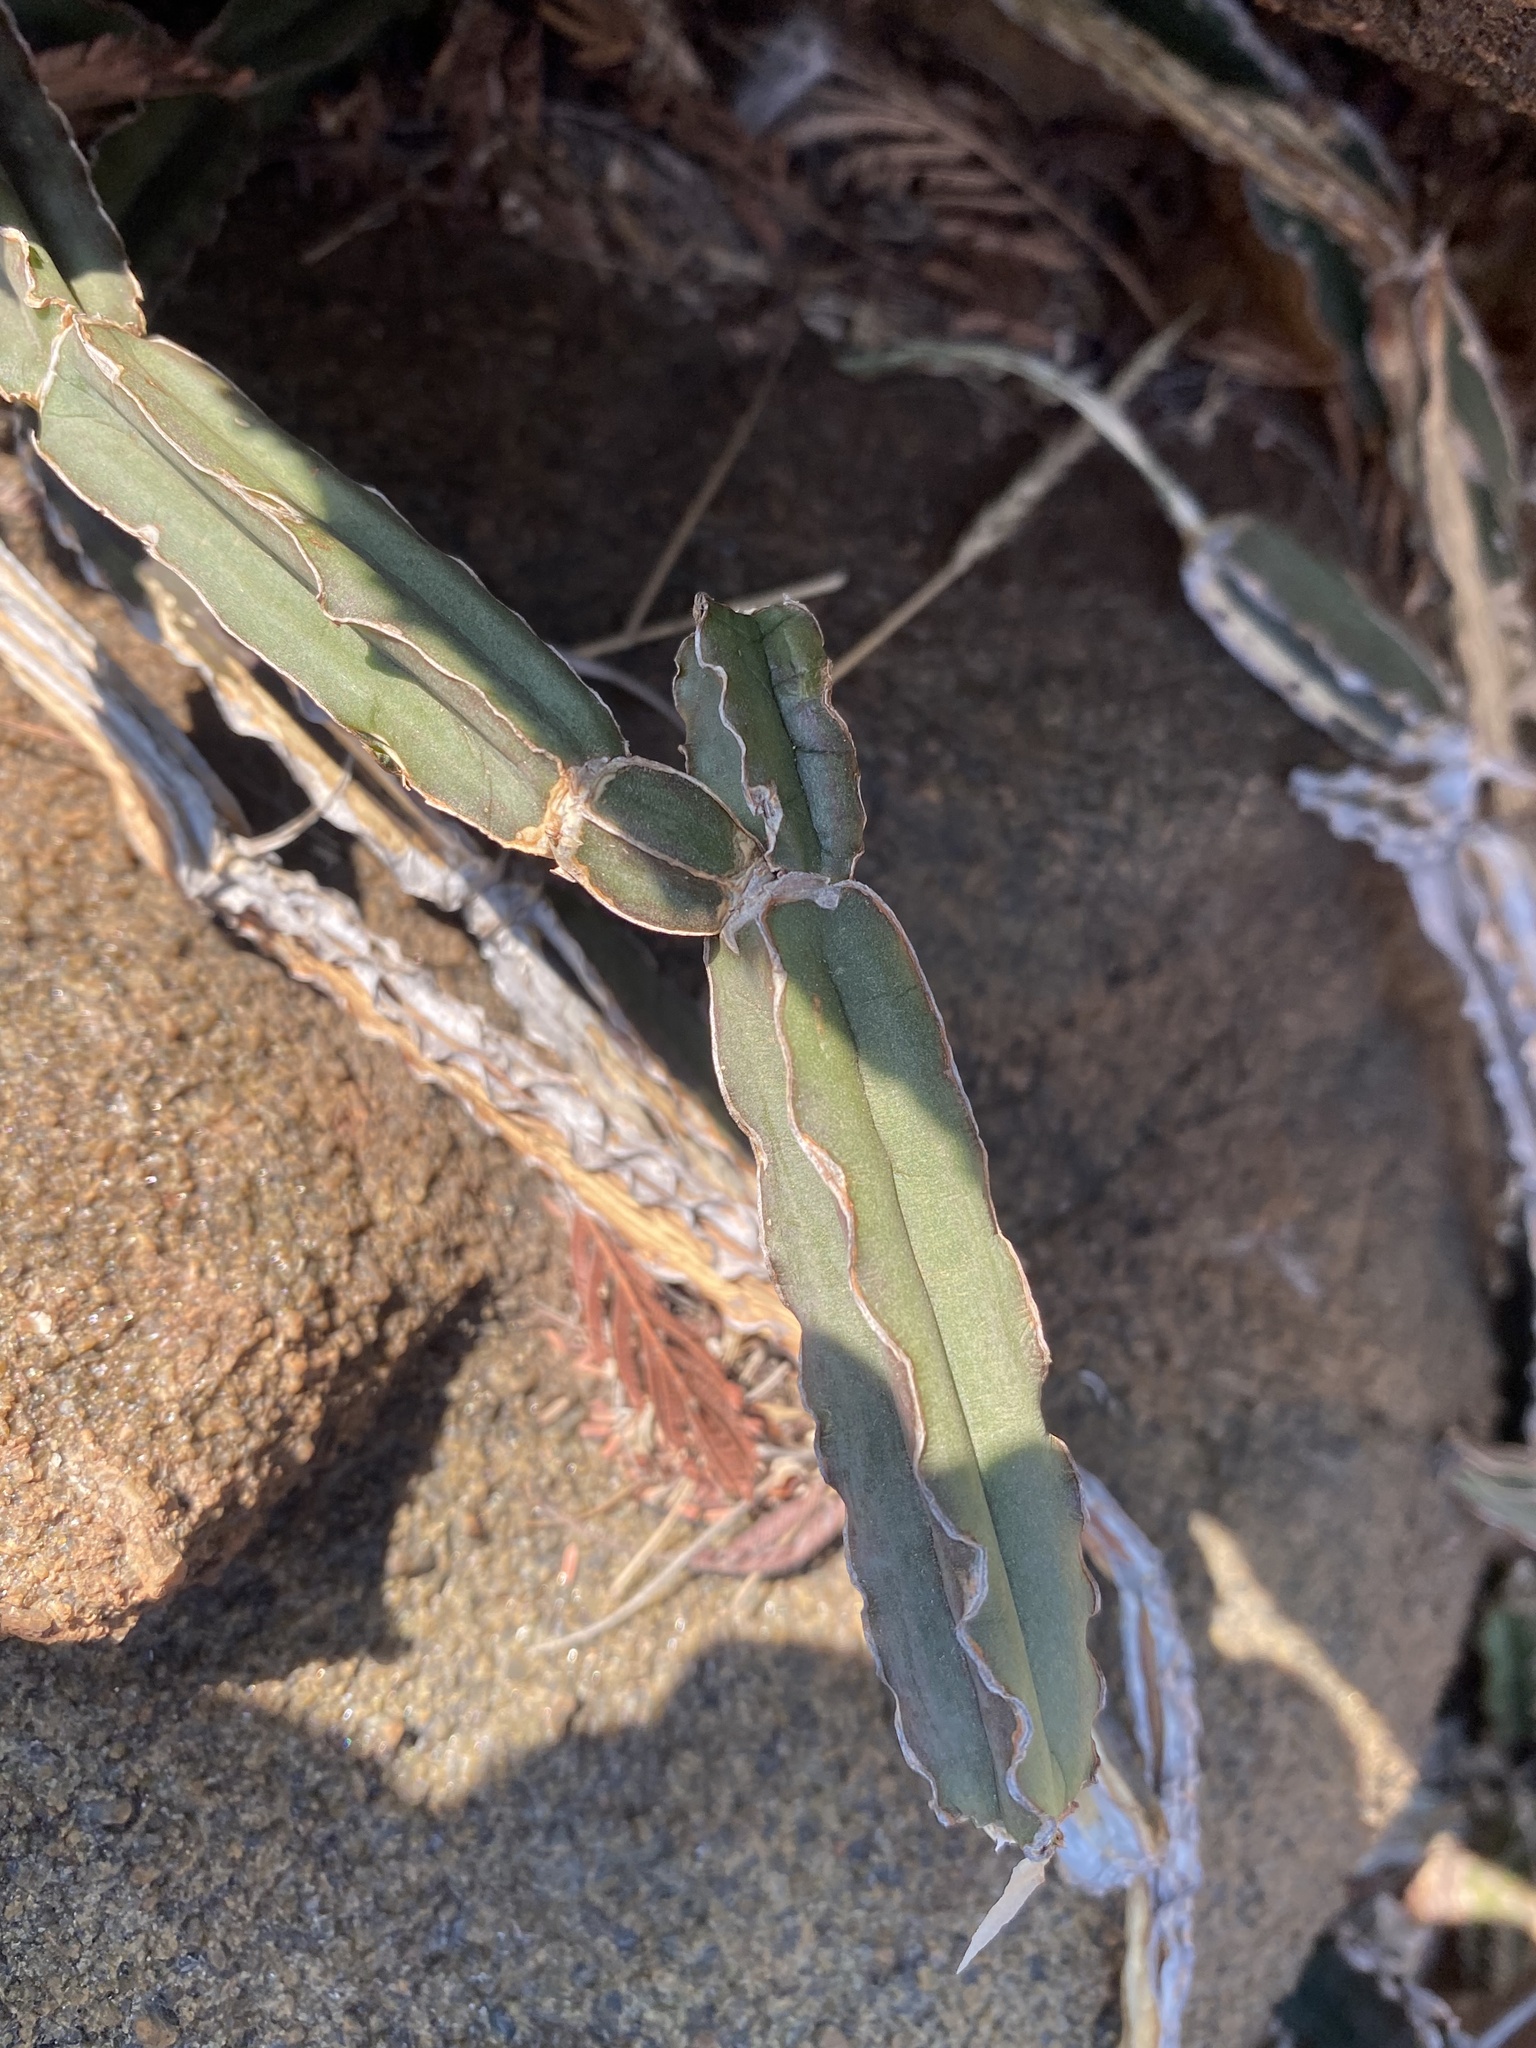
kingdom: Plantae
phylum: Tracheophyta
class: Magnoliopsida
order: Vitales
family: Vitaceae
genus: Cissus
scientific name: Cissus cactiformis
